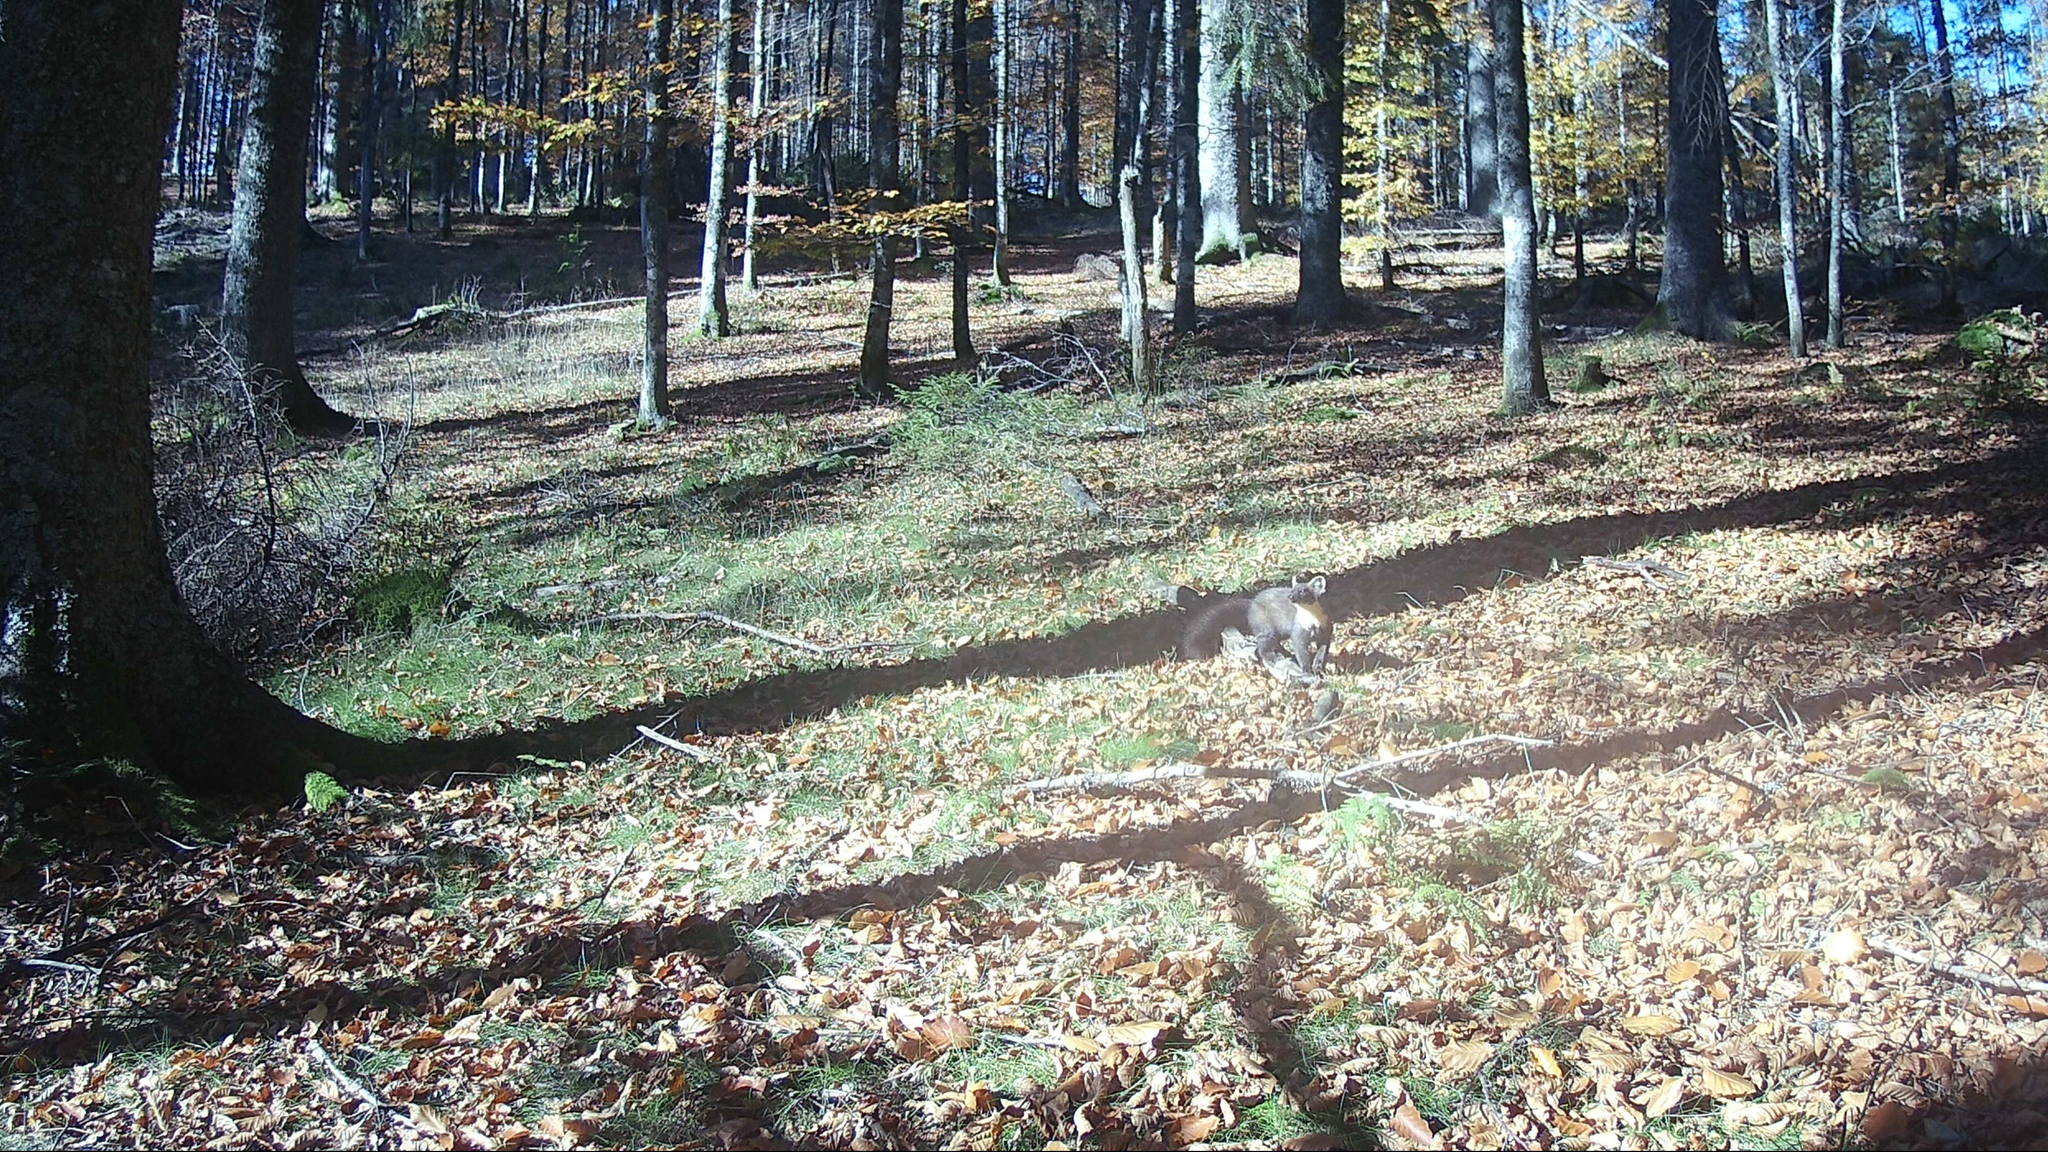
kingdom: Animalia
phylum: Chordata
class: Mammalia
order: Carnivora
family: Mustelidae
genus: Martes
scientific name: Martes martes
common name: European pine marten
